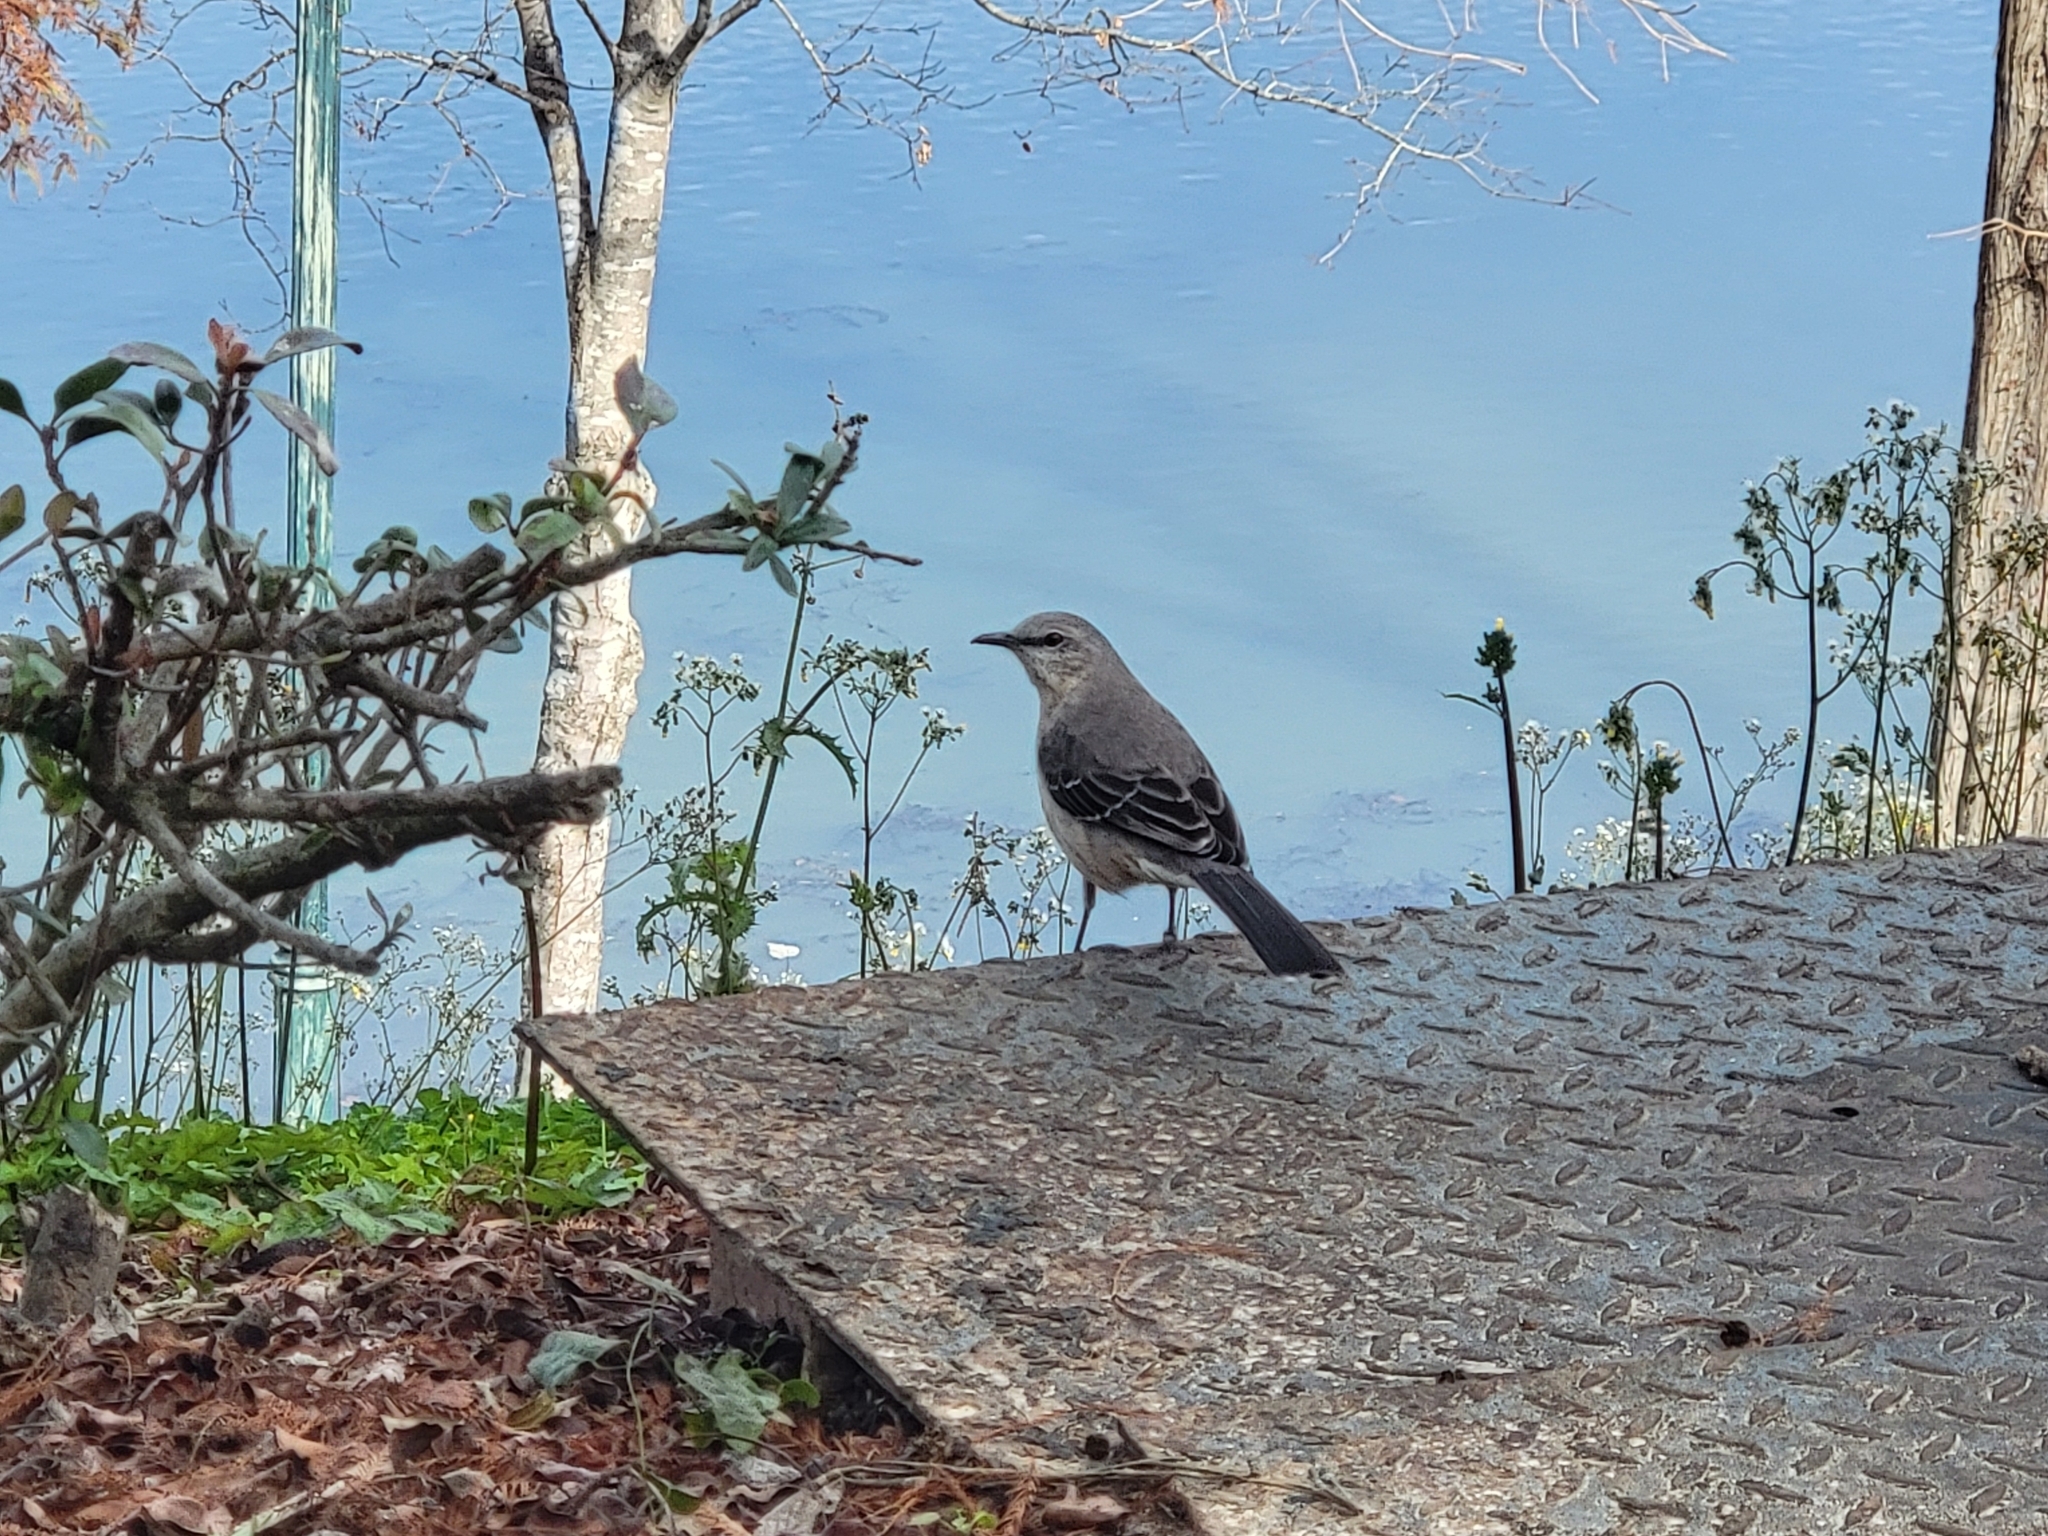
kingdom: Animalia
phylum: Chordata
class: Aves
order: Passeriformes
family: Mimidae
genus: Mimus
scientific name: Mimus polyglottos
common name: Northern mockingbird
